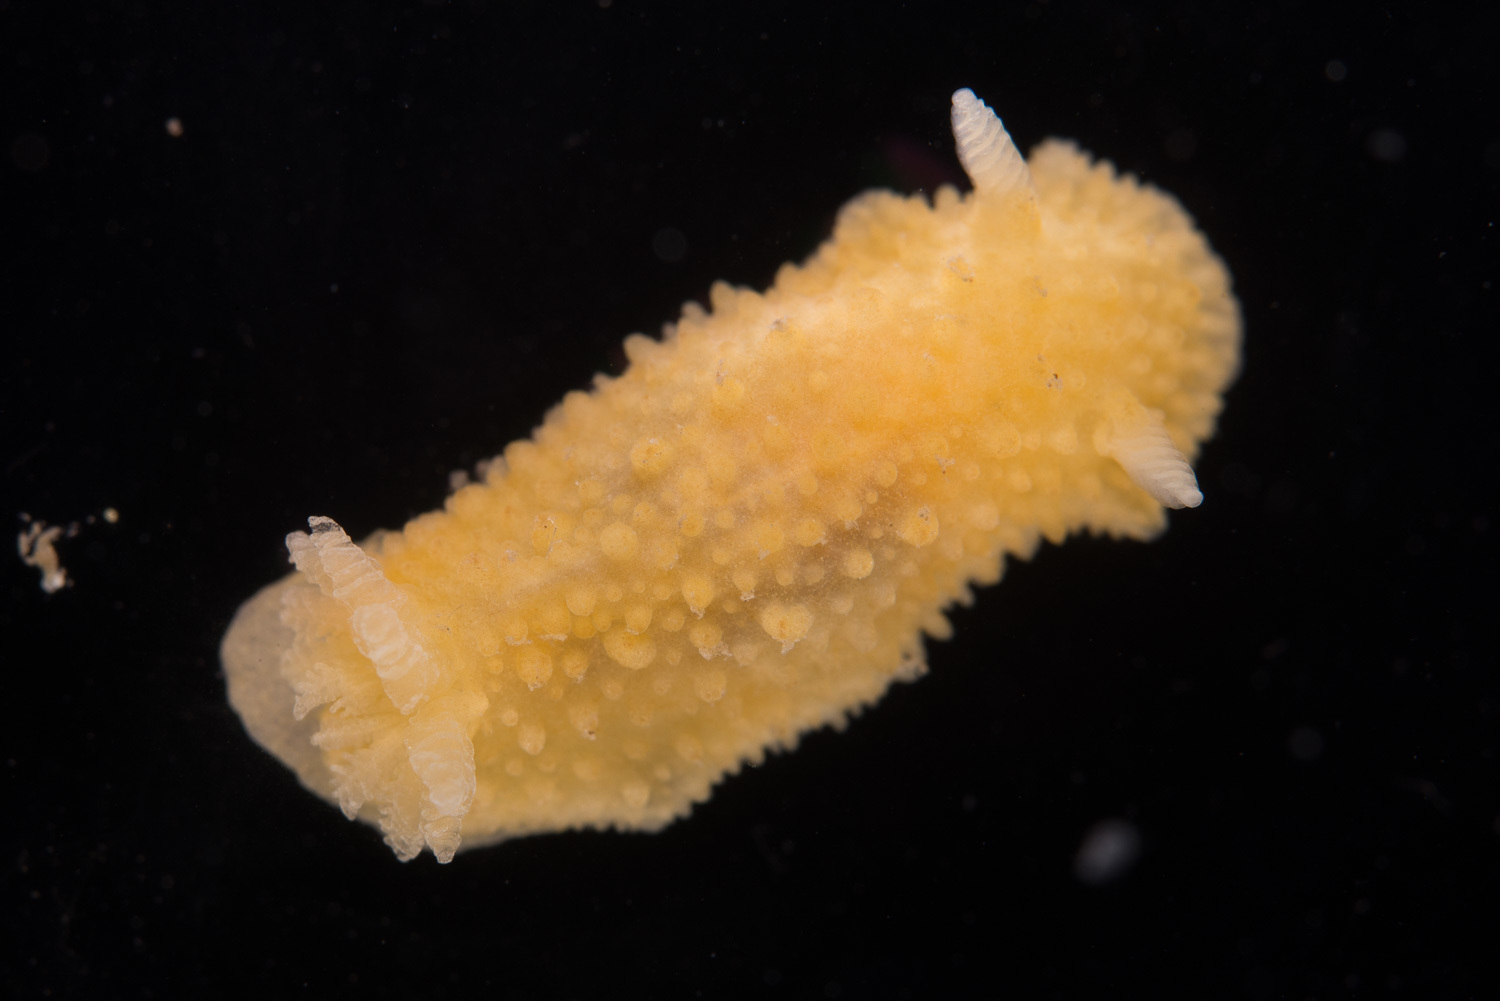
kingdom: Animalia
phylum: Mollusca
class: Gastropoda
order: Nudibranchia
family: Dorididae
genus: Doris
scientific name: Doris ocelligera
